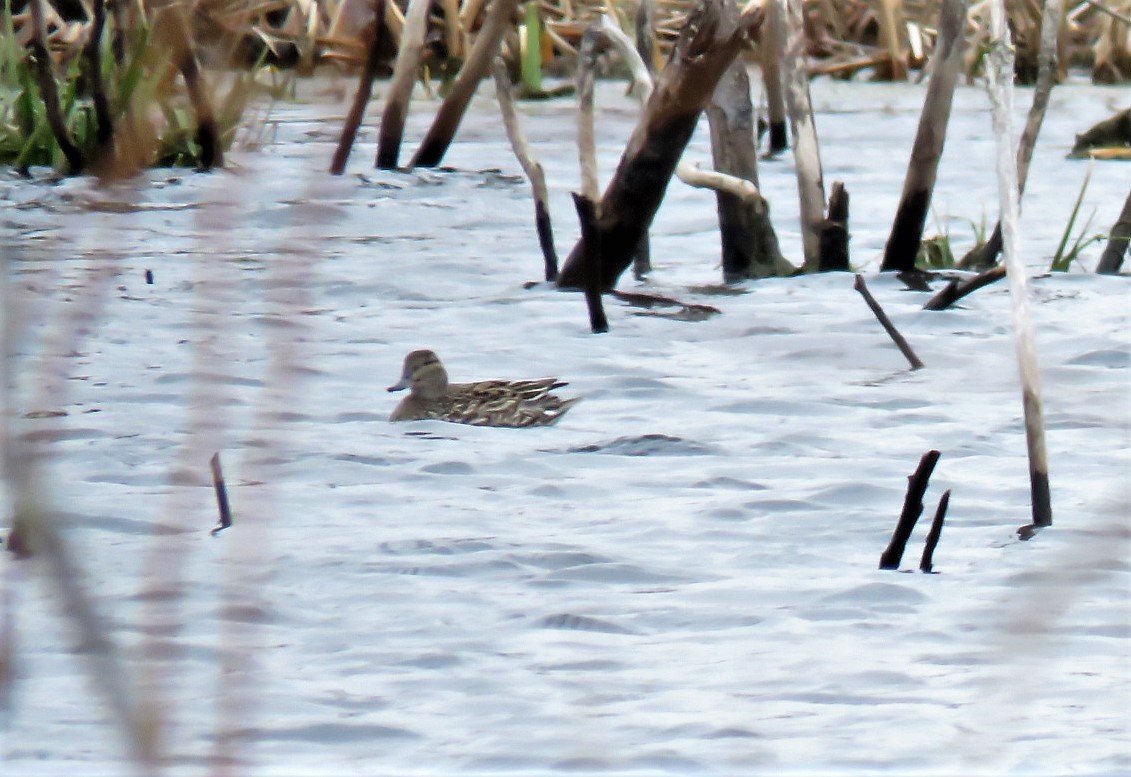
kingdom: Animalia
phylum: Chordata
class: Aves
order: Anseriformes
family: Anatidae
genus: Anas
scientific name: Anas crecca
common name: Eurasian teal
